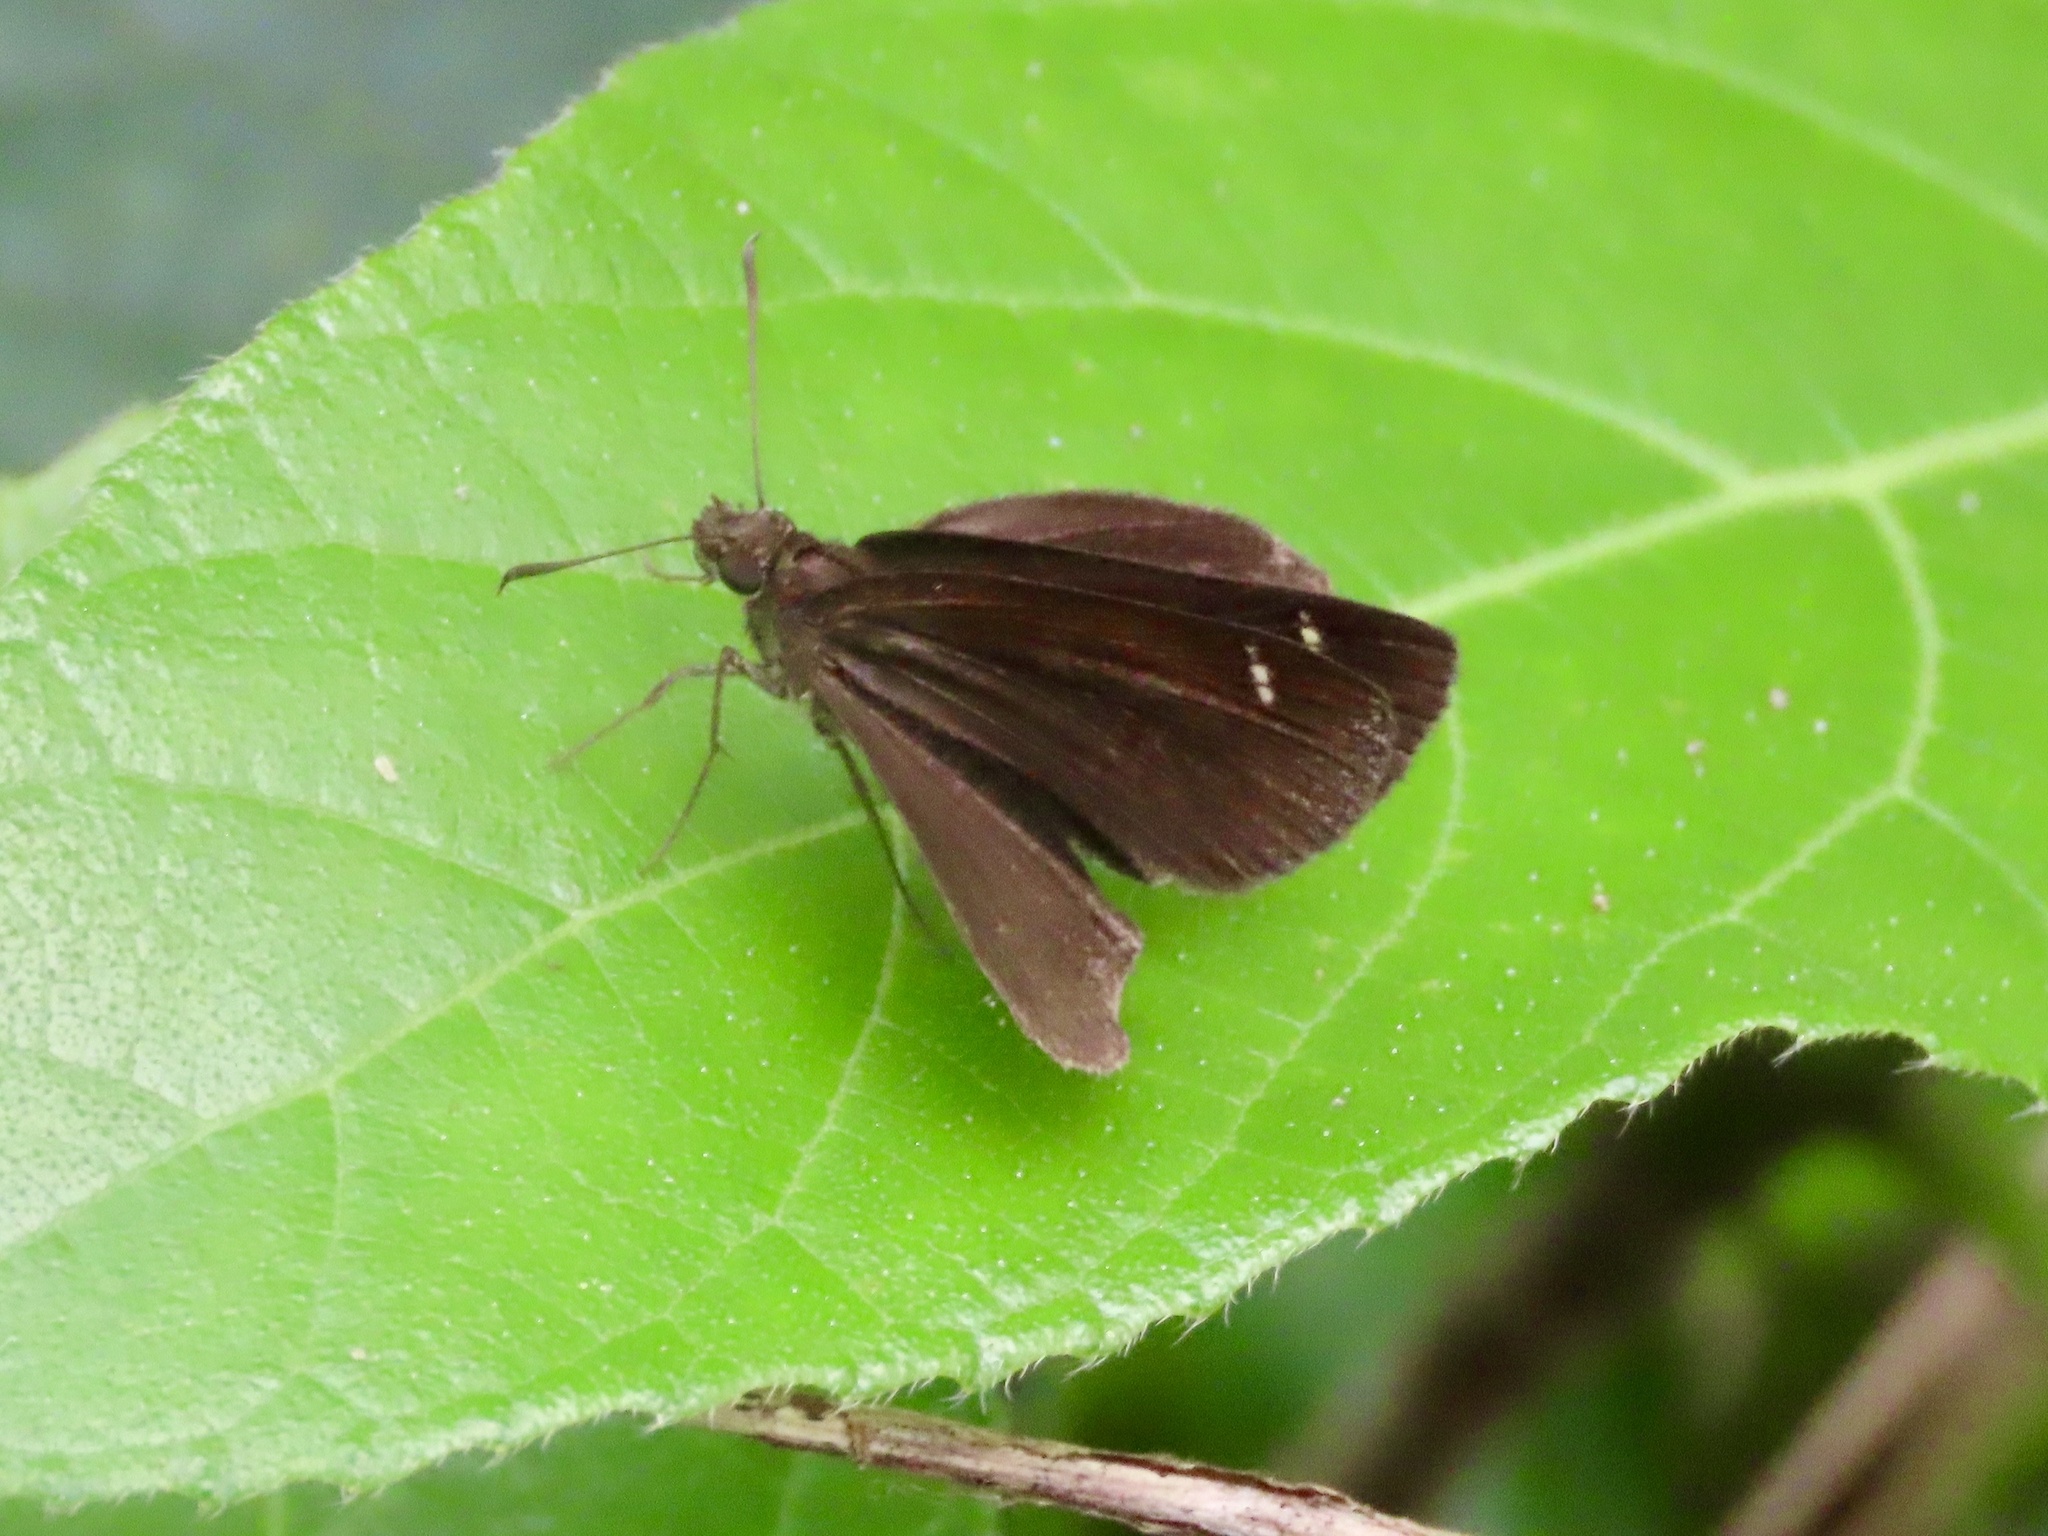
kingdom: Animalia
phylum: Arthropoda
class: Insecta
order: Lepidoptera
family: Hesperiidae
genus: Astictopterus
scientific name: Astictopterus jama
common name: Forest hopper
